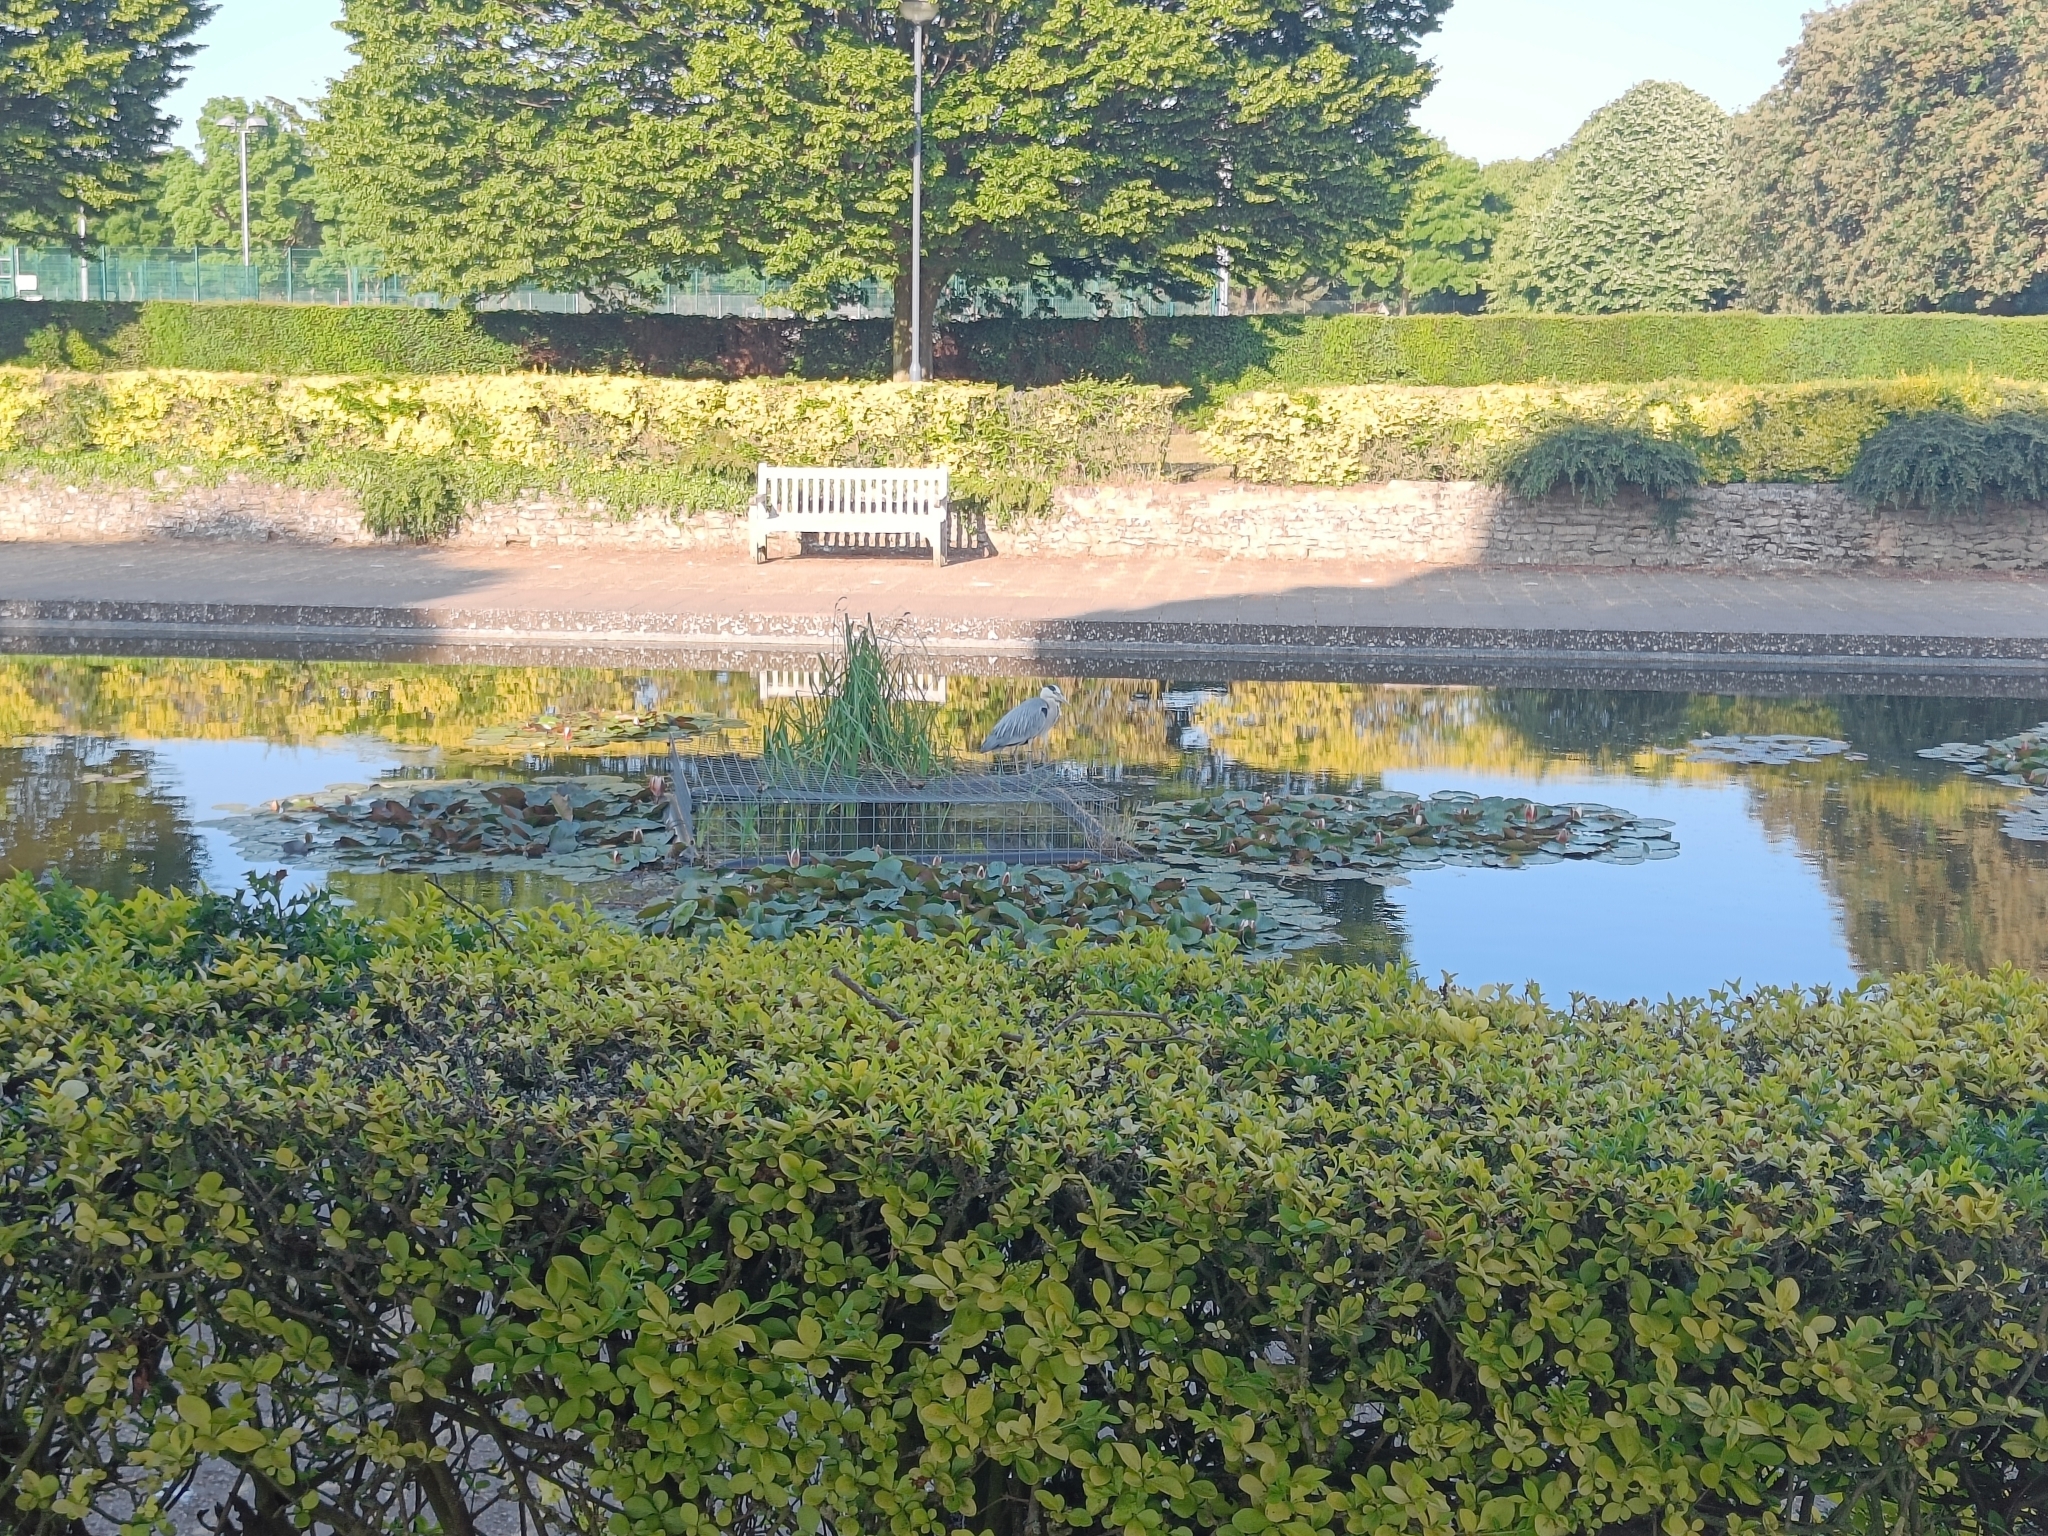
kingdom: Animalia
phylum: Chordata
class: Aves
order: Pelecaniformes
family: Ardeidae
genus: Ardea
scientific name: Ardea cinerea
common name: Grey heron
